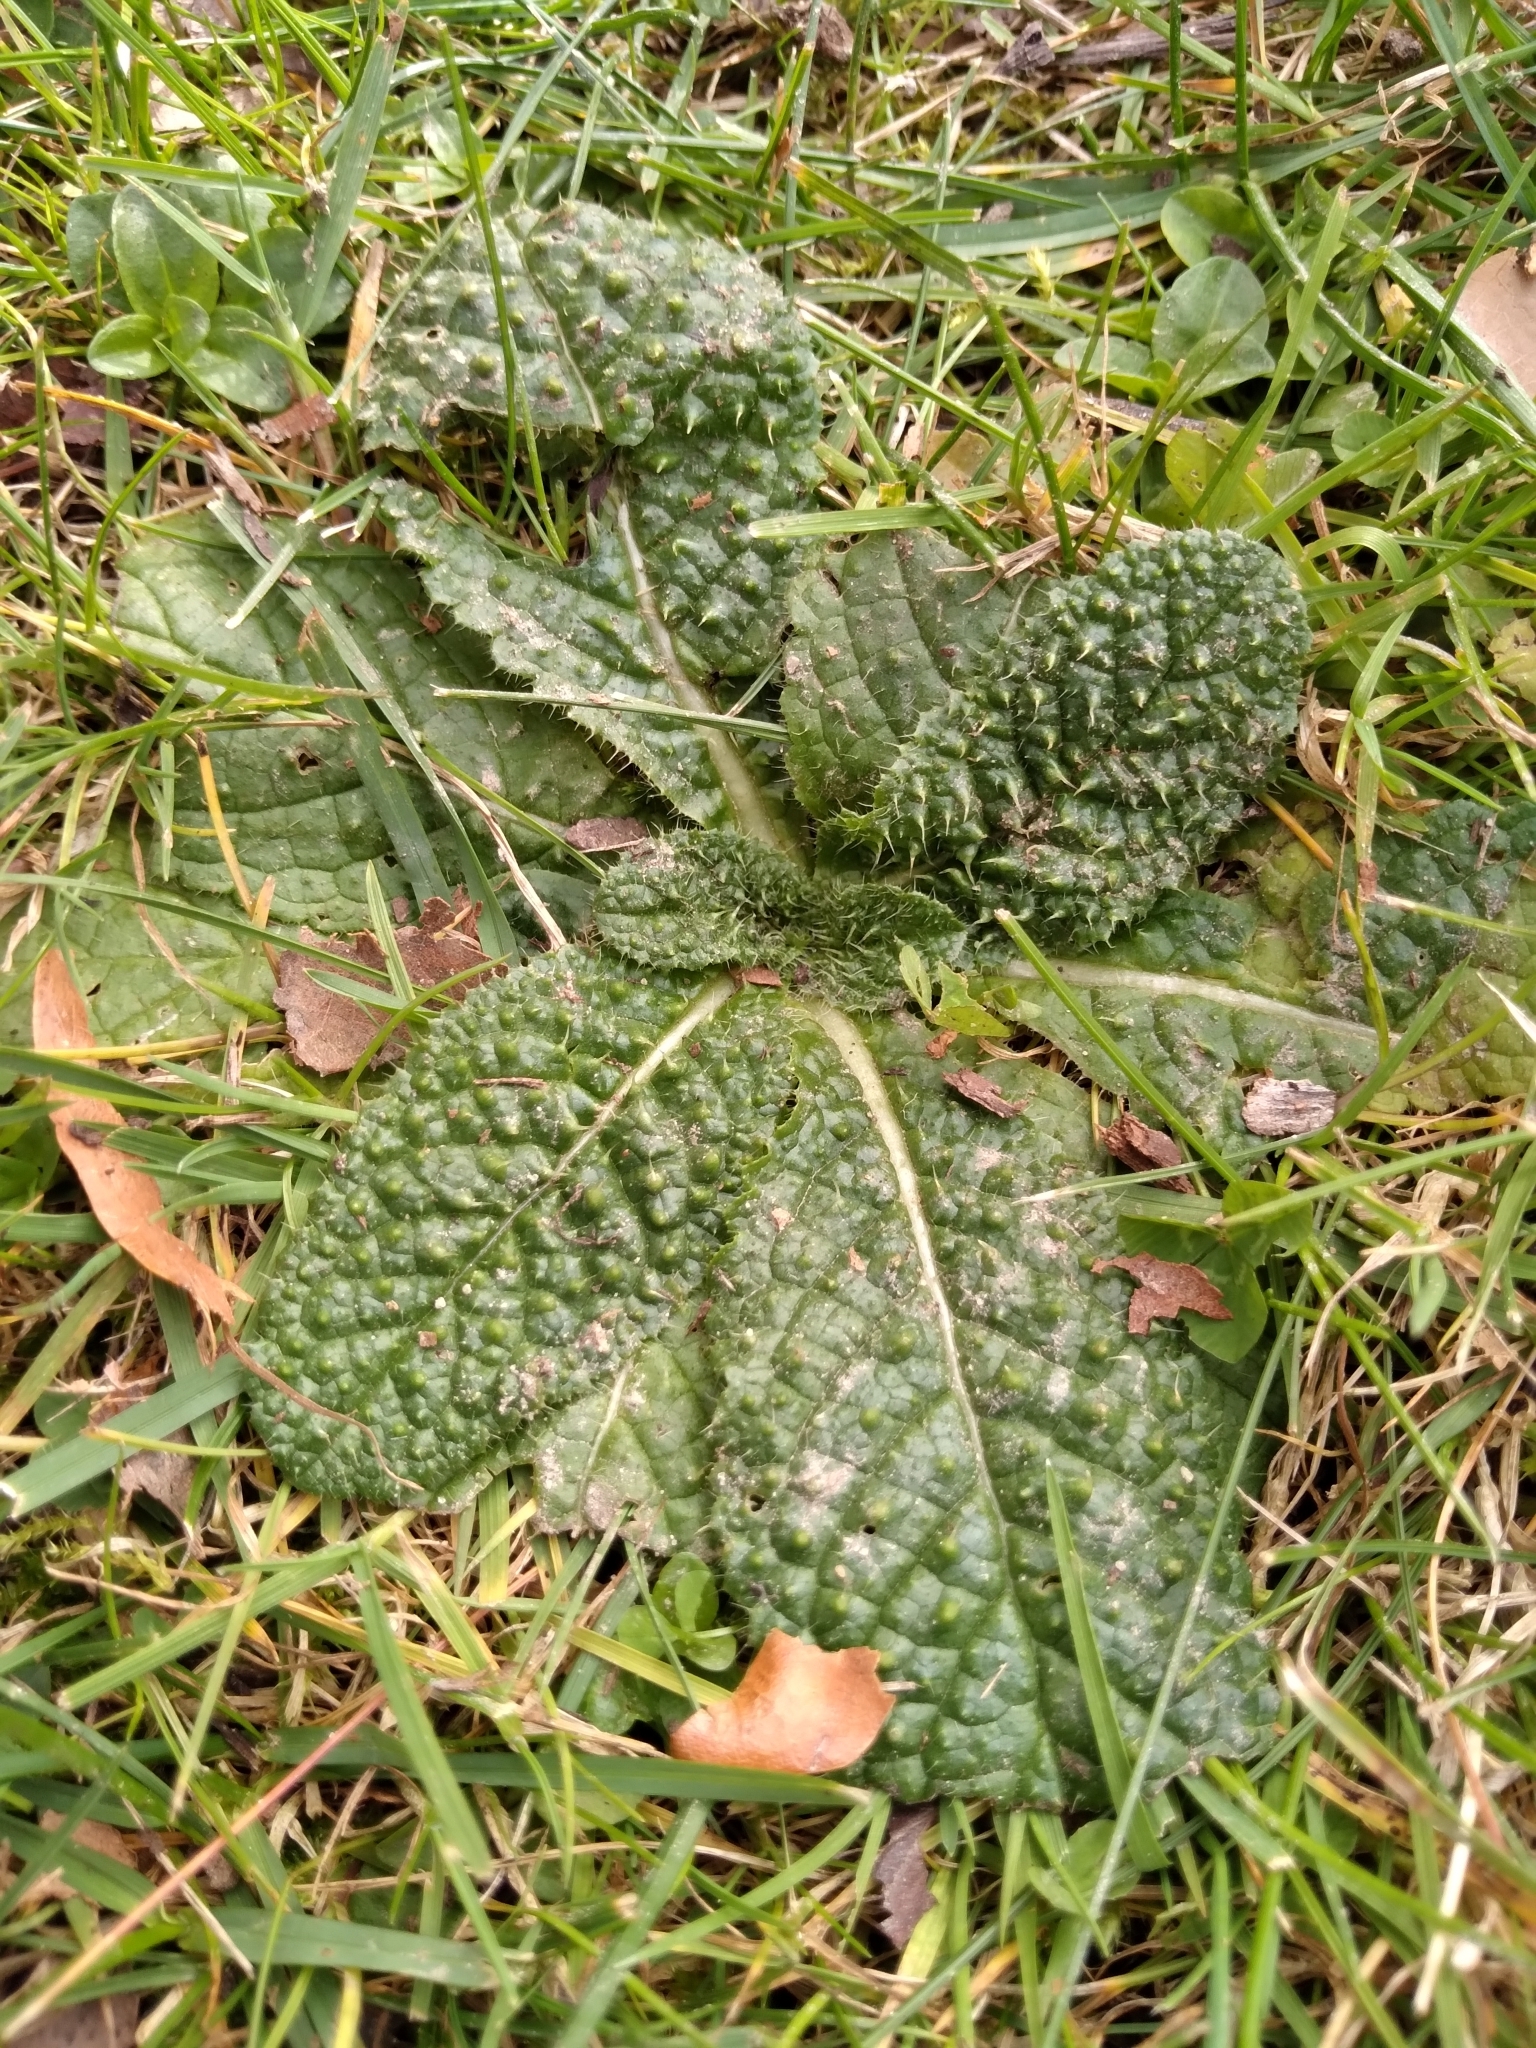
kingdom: Plantae
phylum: Tracheophyta
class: Magnoliopsida
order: Dipsacales
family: Caprifoliaceae
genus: Dipsacus
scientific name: Dipsacus fullonum
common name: Teasel
